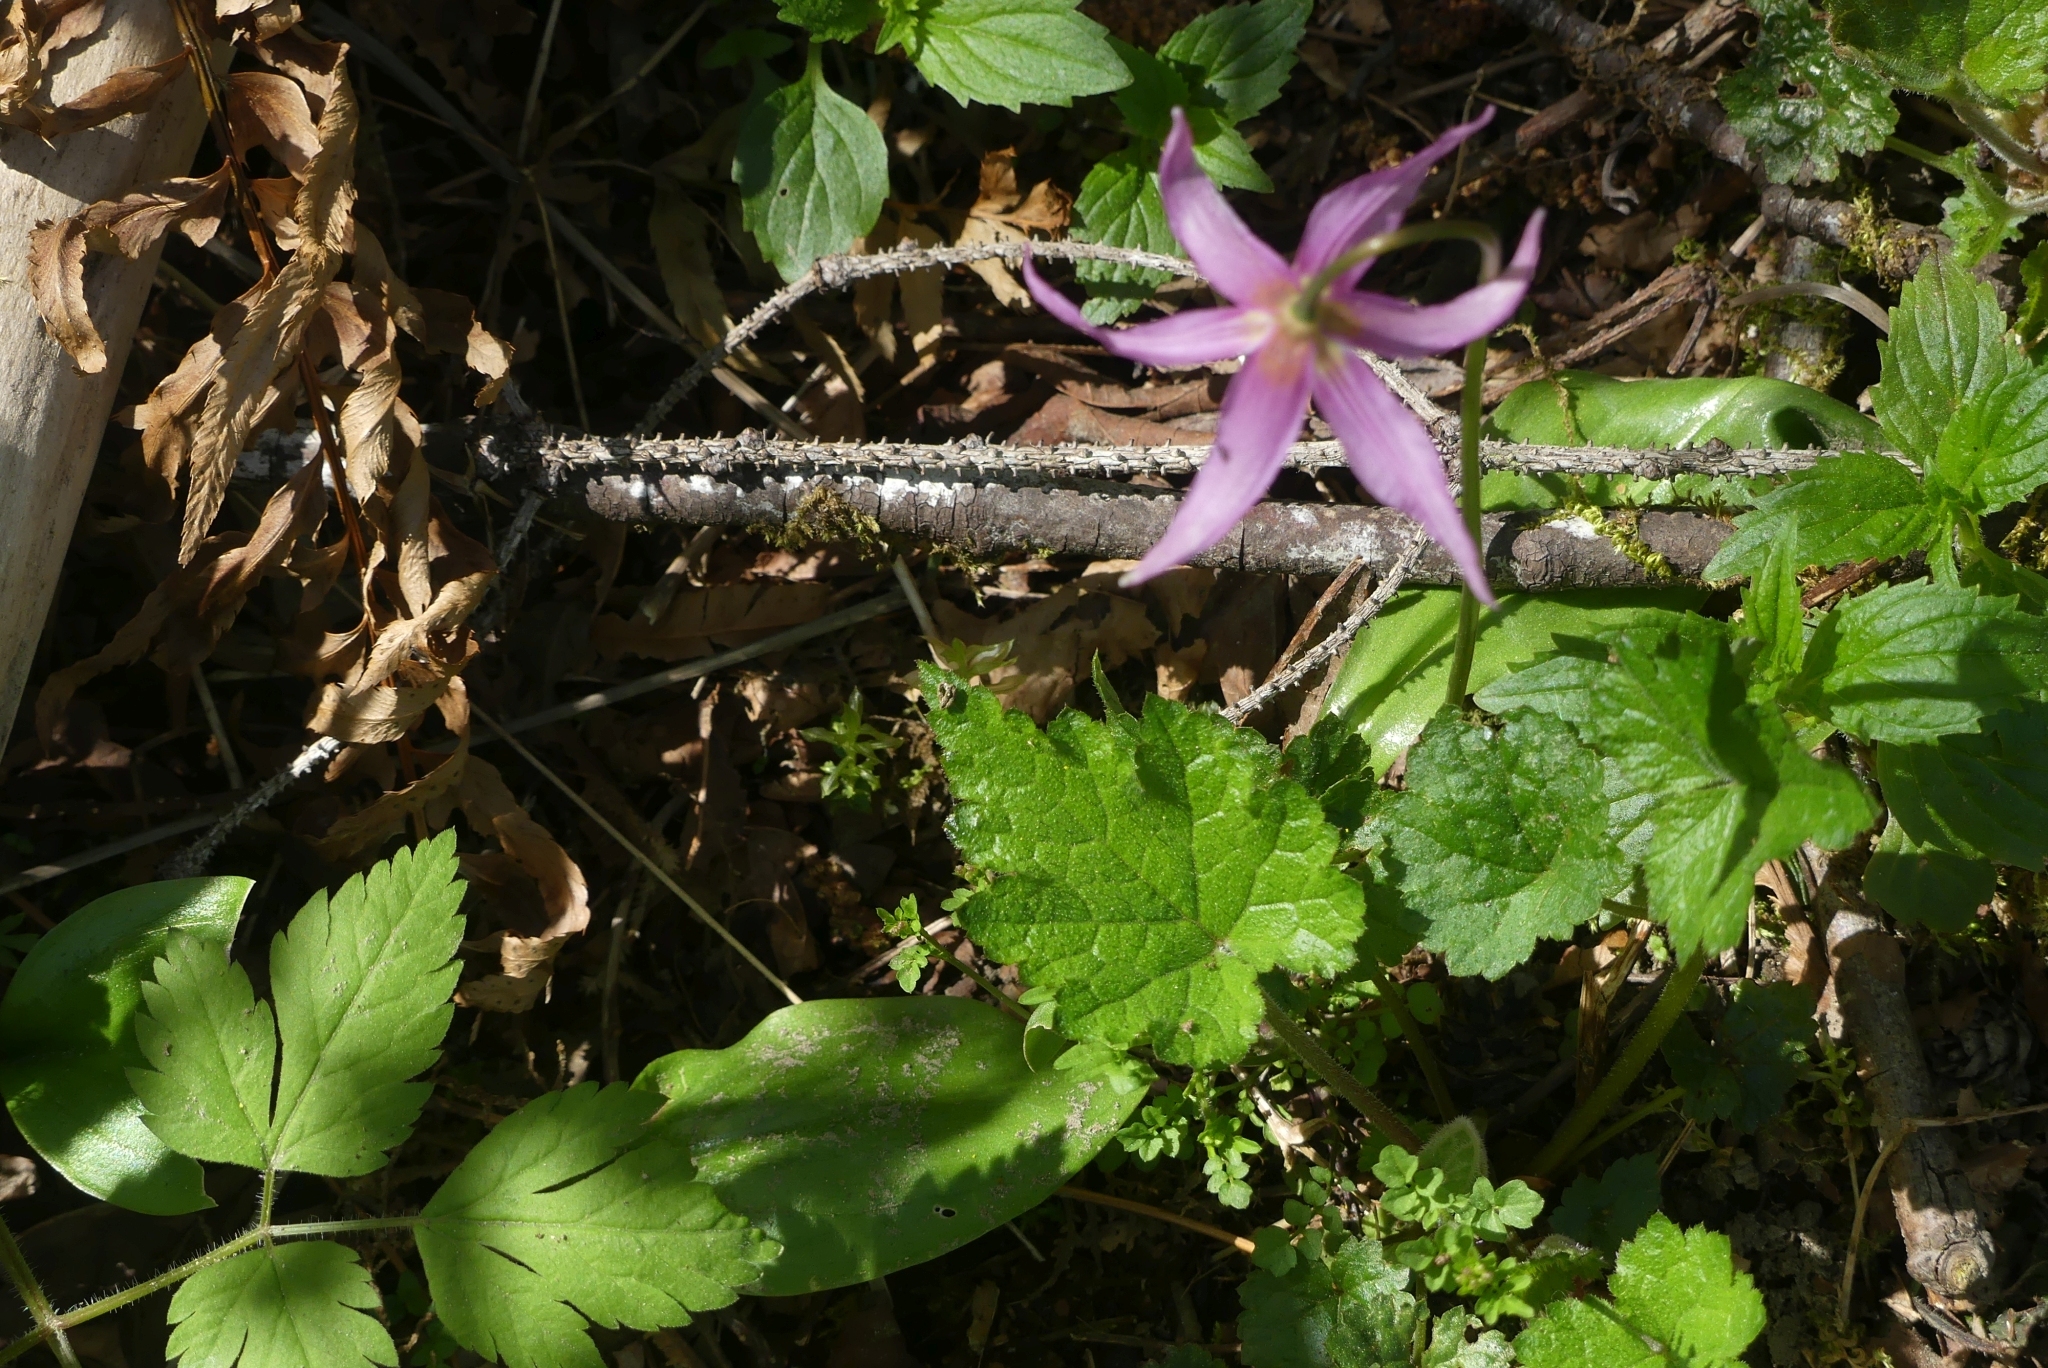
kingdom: Plantae
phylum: Tracheophyta
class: Liliopsida
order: Liliales
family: Liliaceae
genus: Erythronium
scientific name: Erythronium revolutum
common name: Pink fawn-lily
